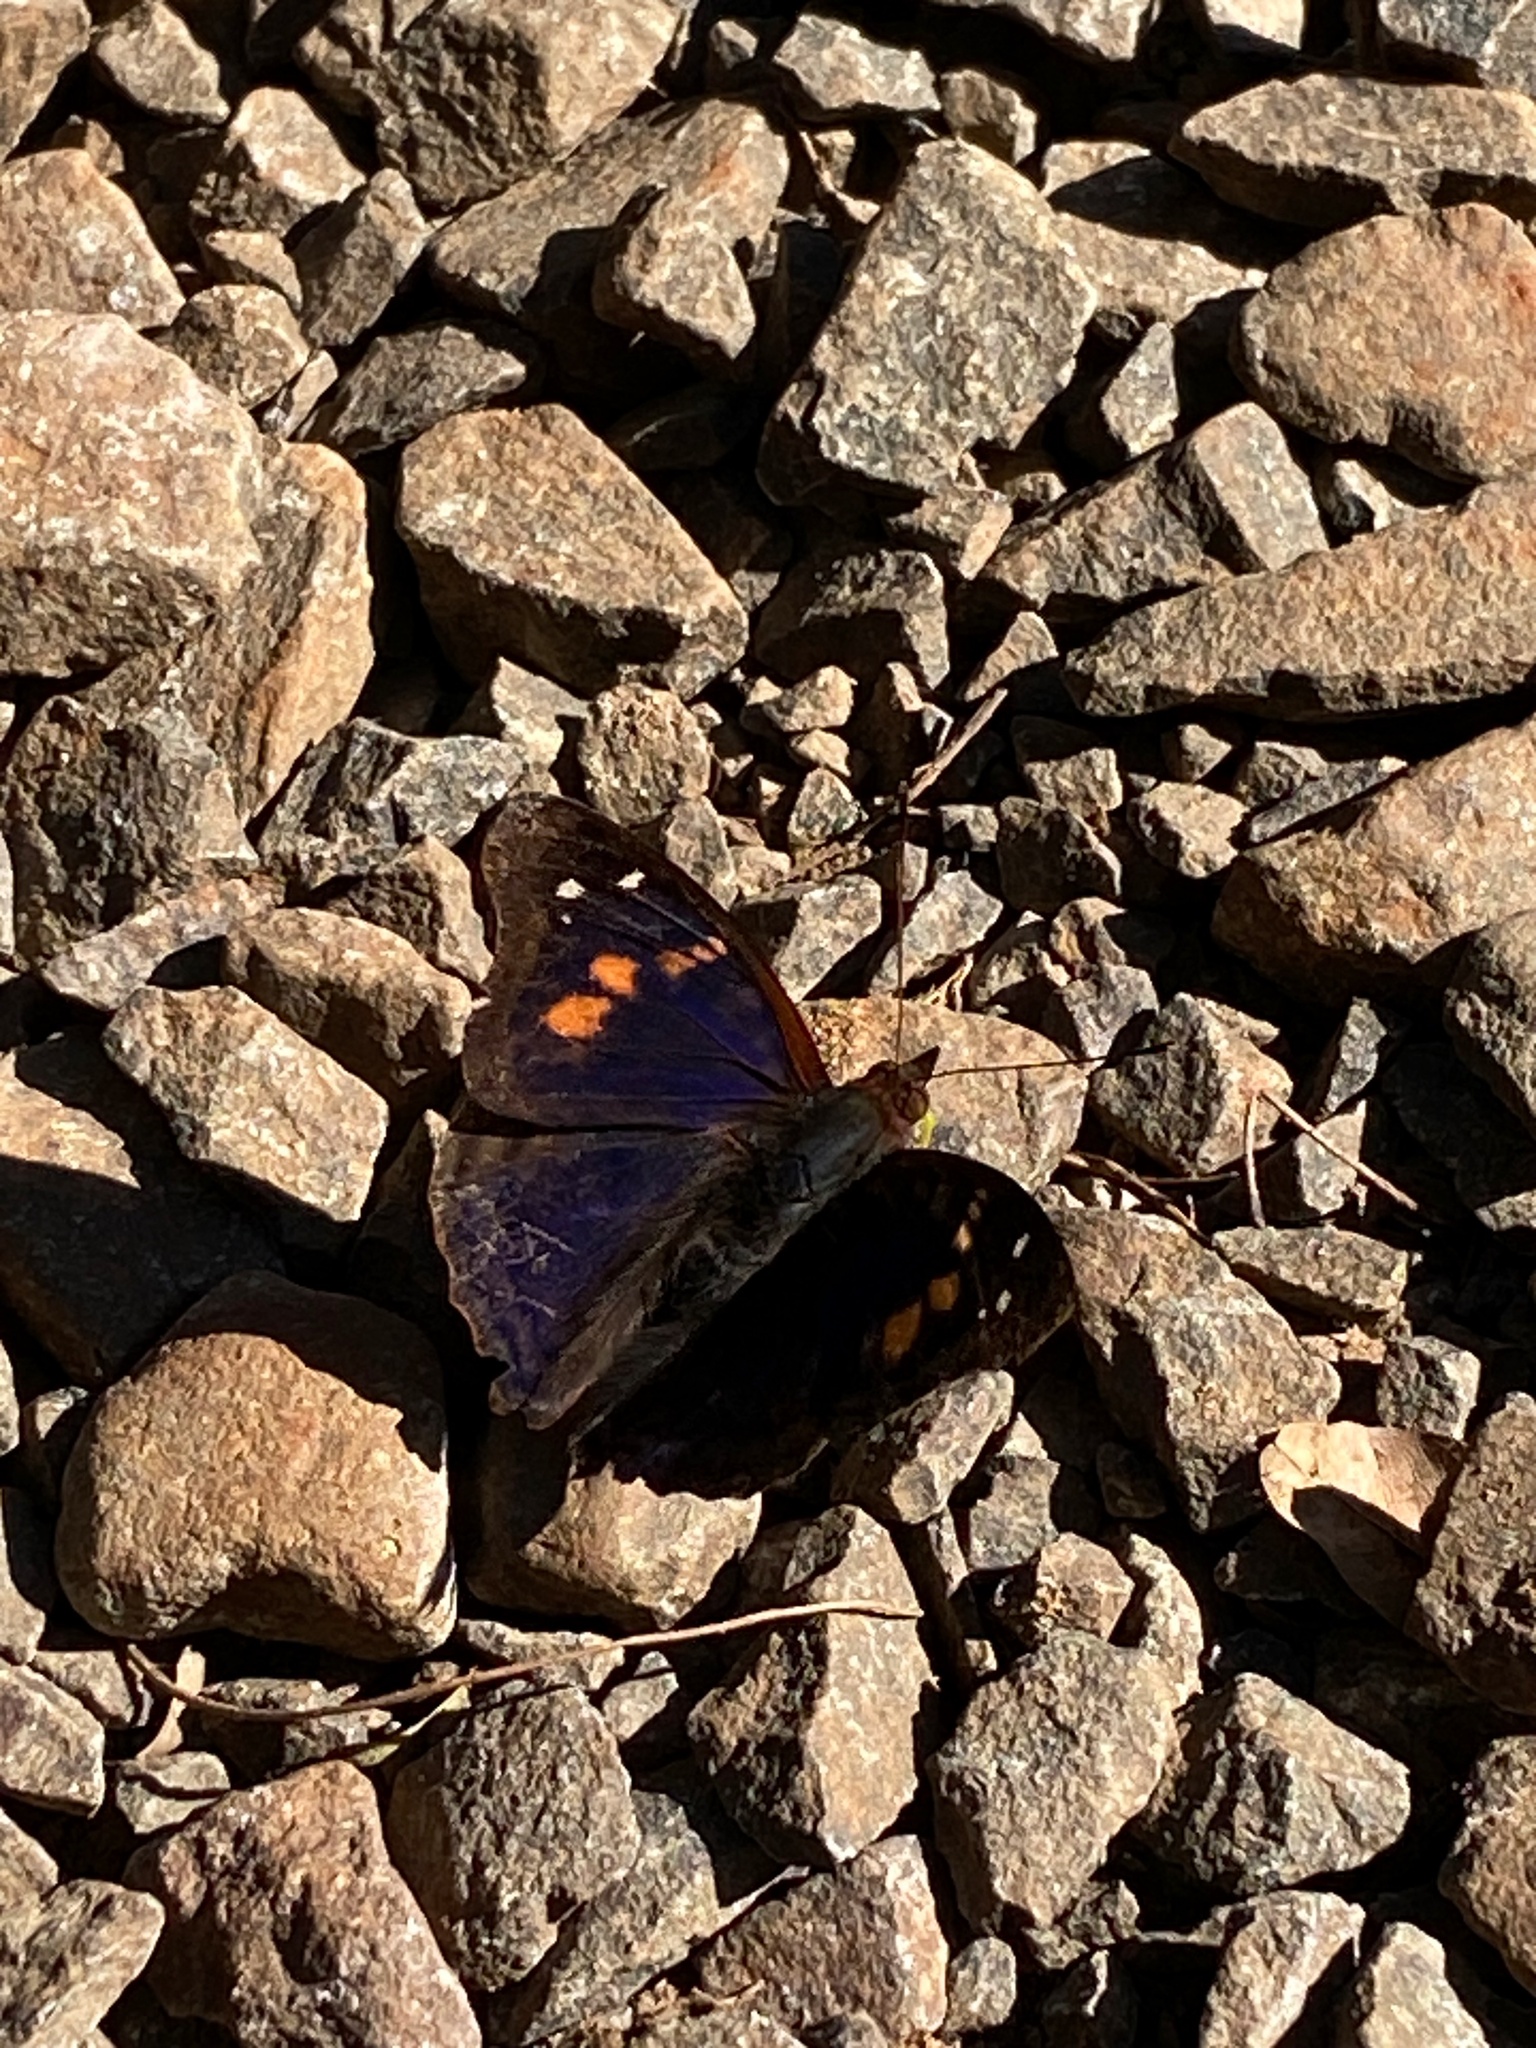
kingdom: Animalia
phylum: Arthropoda
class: Insecta
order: Lepidoptera
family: Nymphalidae
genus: Doxocopa
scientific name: Doxocopa agathina
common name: Agathina emperor
